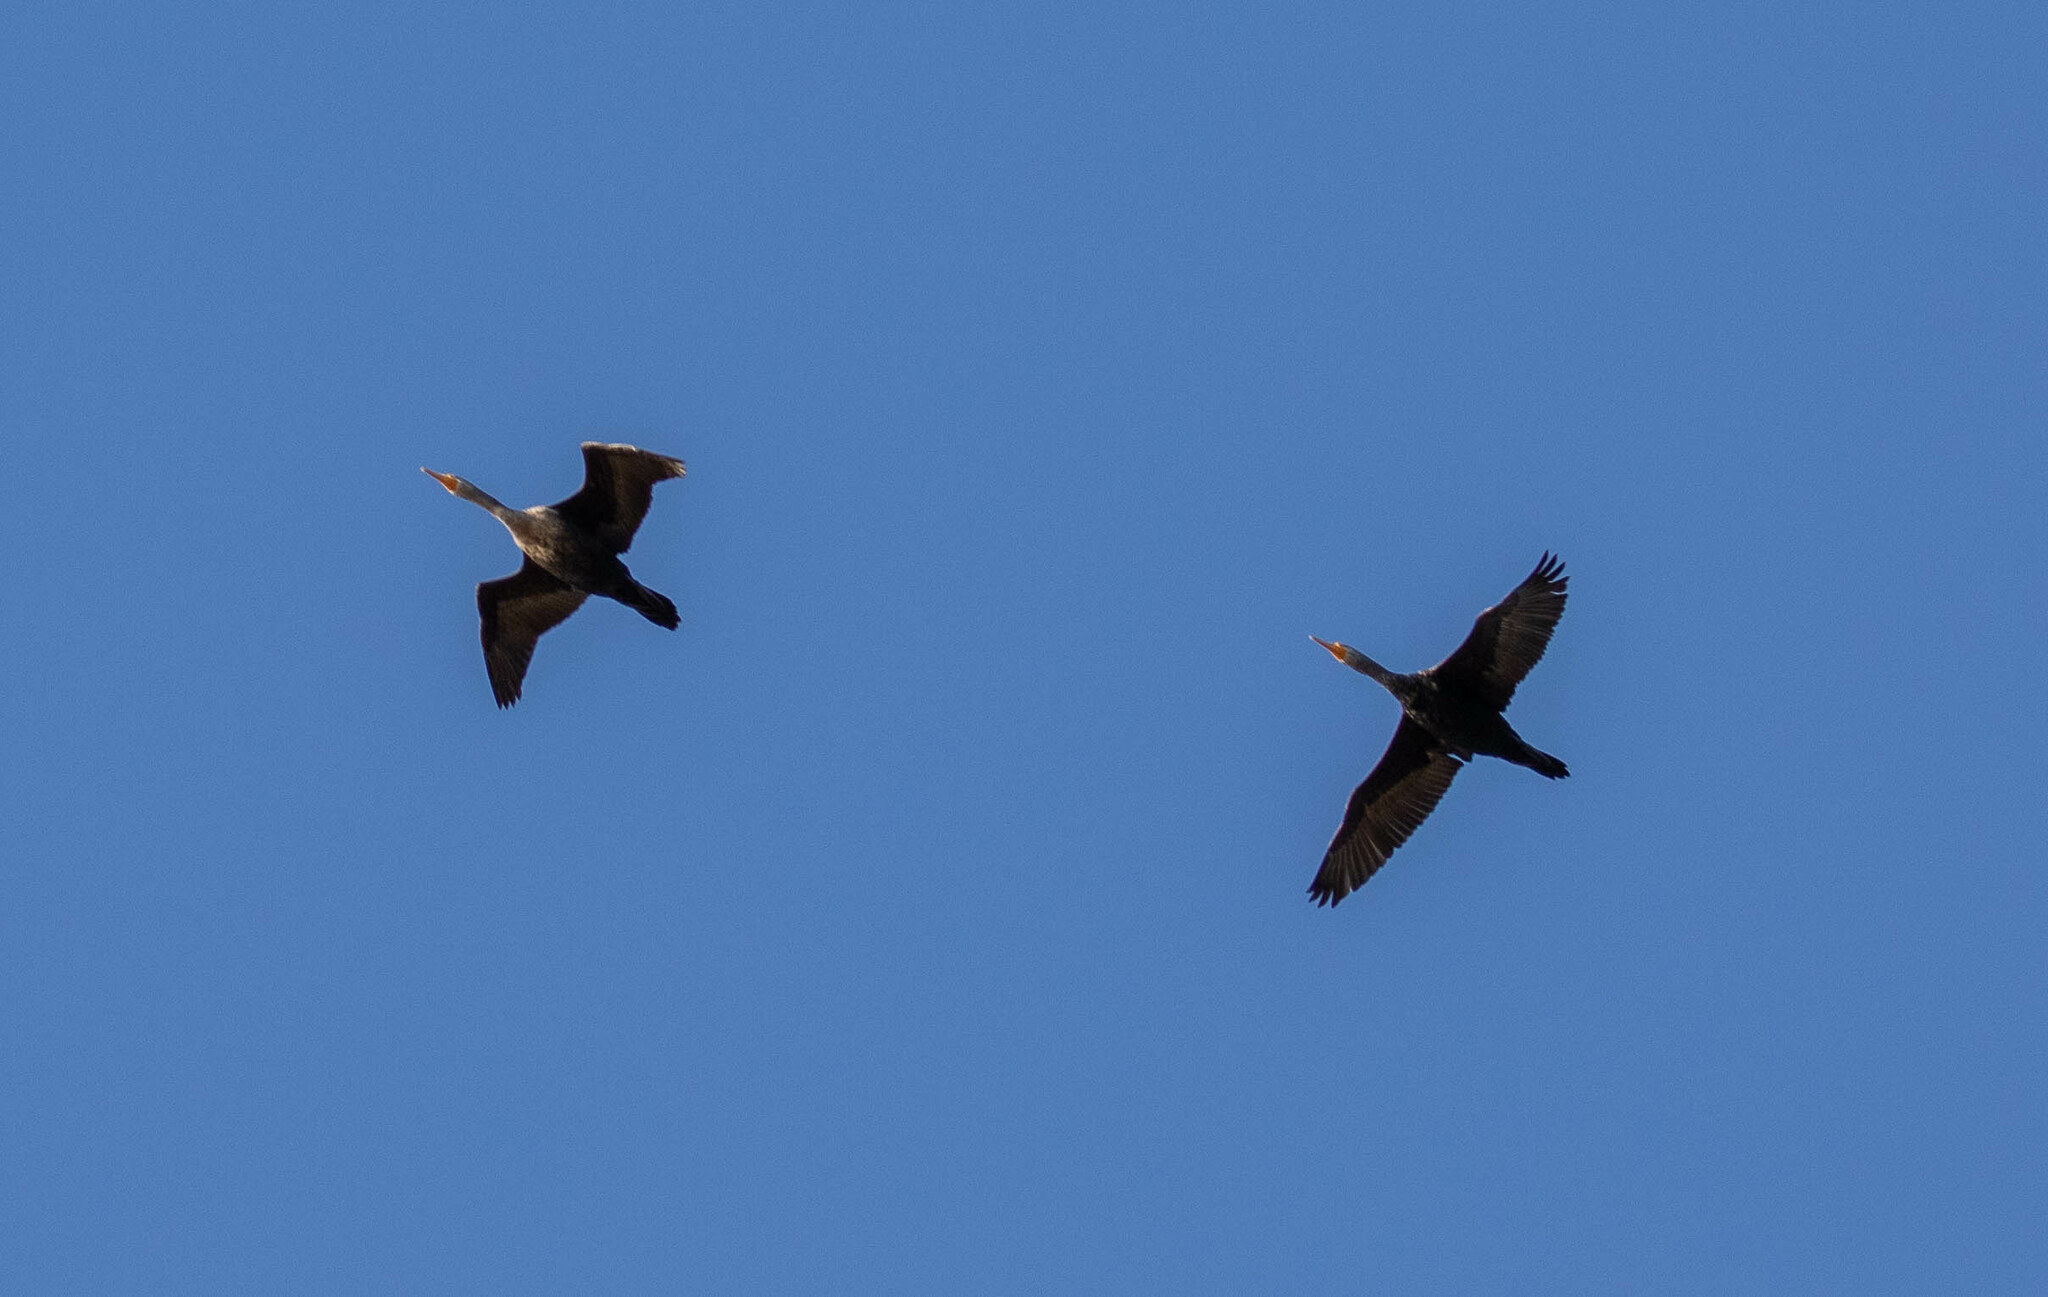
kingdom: Animalia
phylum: Chordata
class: Aves
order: Suliformes
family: Phalacrocoracidae
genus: Phalacrocorax
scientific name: Phalacrocorax auritus
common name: Double-crested cormorant
